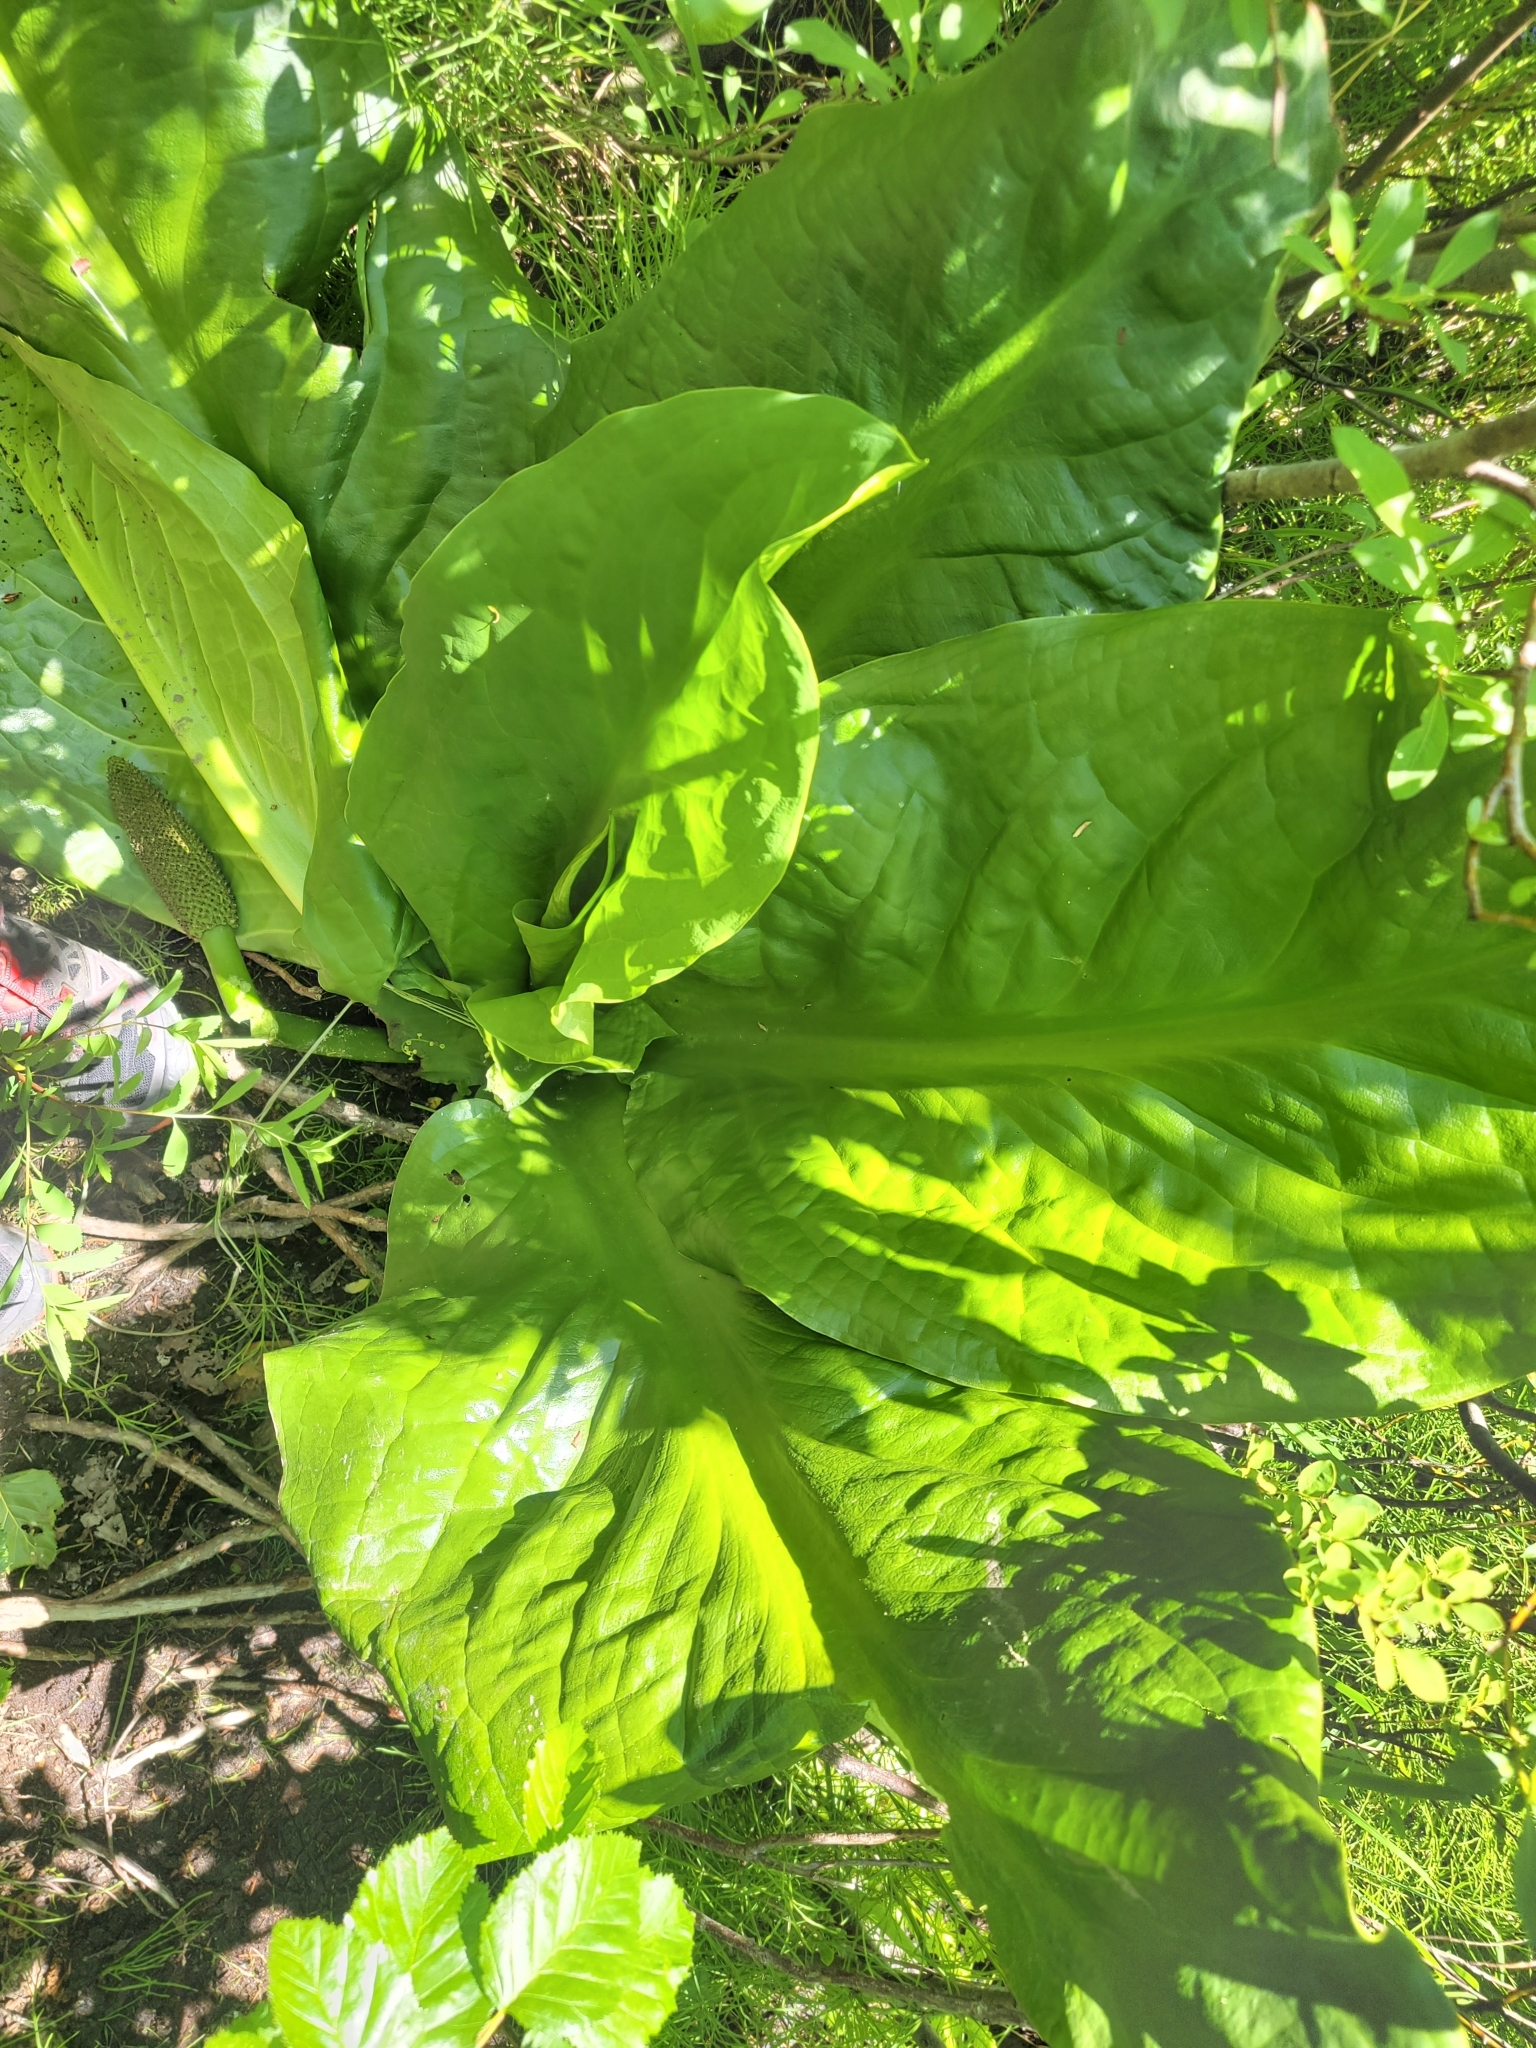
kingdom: Plantae
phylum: Tracheophyta
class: Liliopsida
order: Alismatales
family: Araceae
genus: Lysichiton
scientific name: Lysichiton americanus
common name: American skunk cabbage
